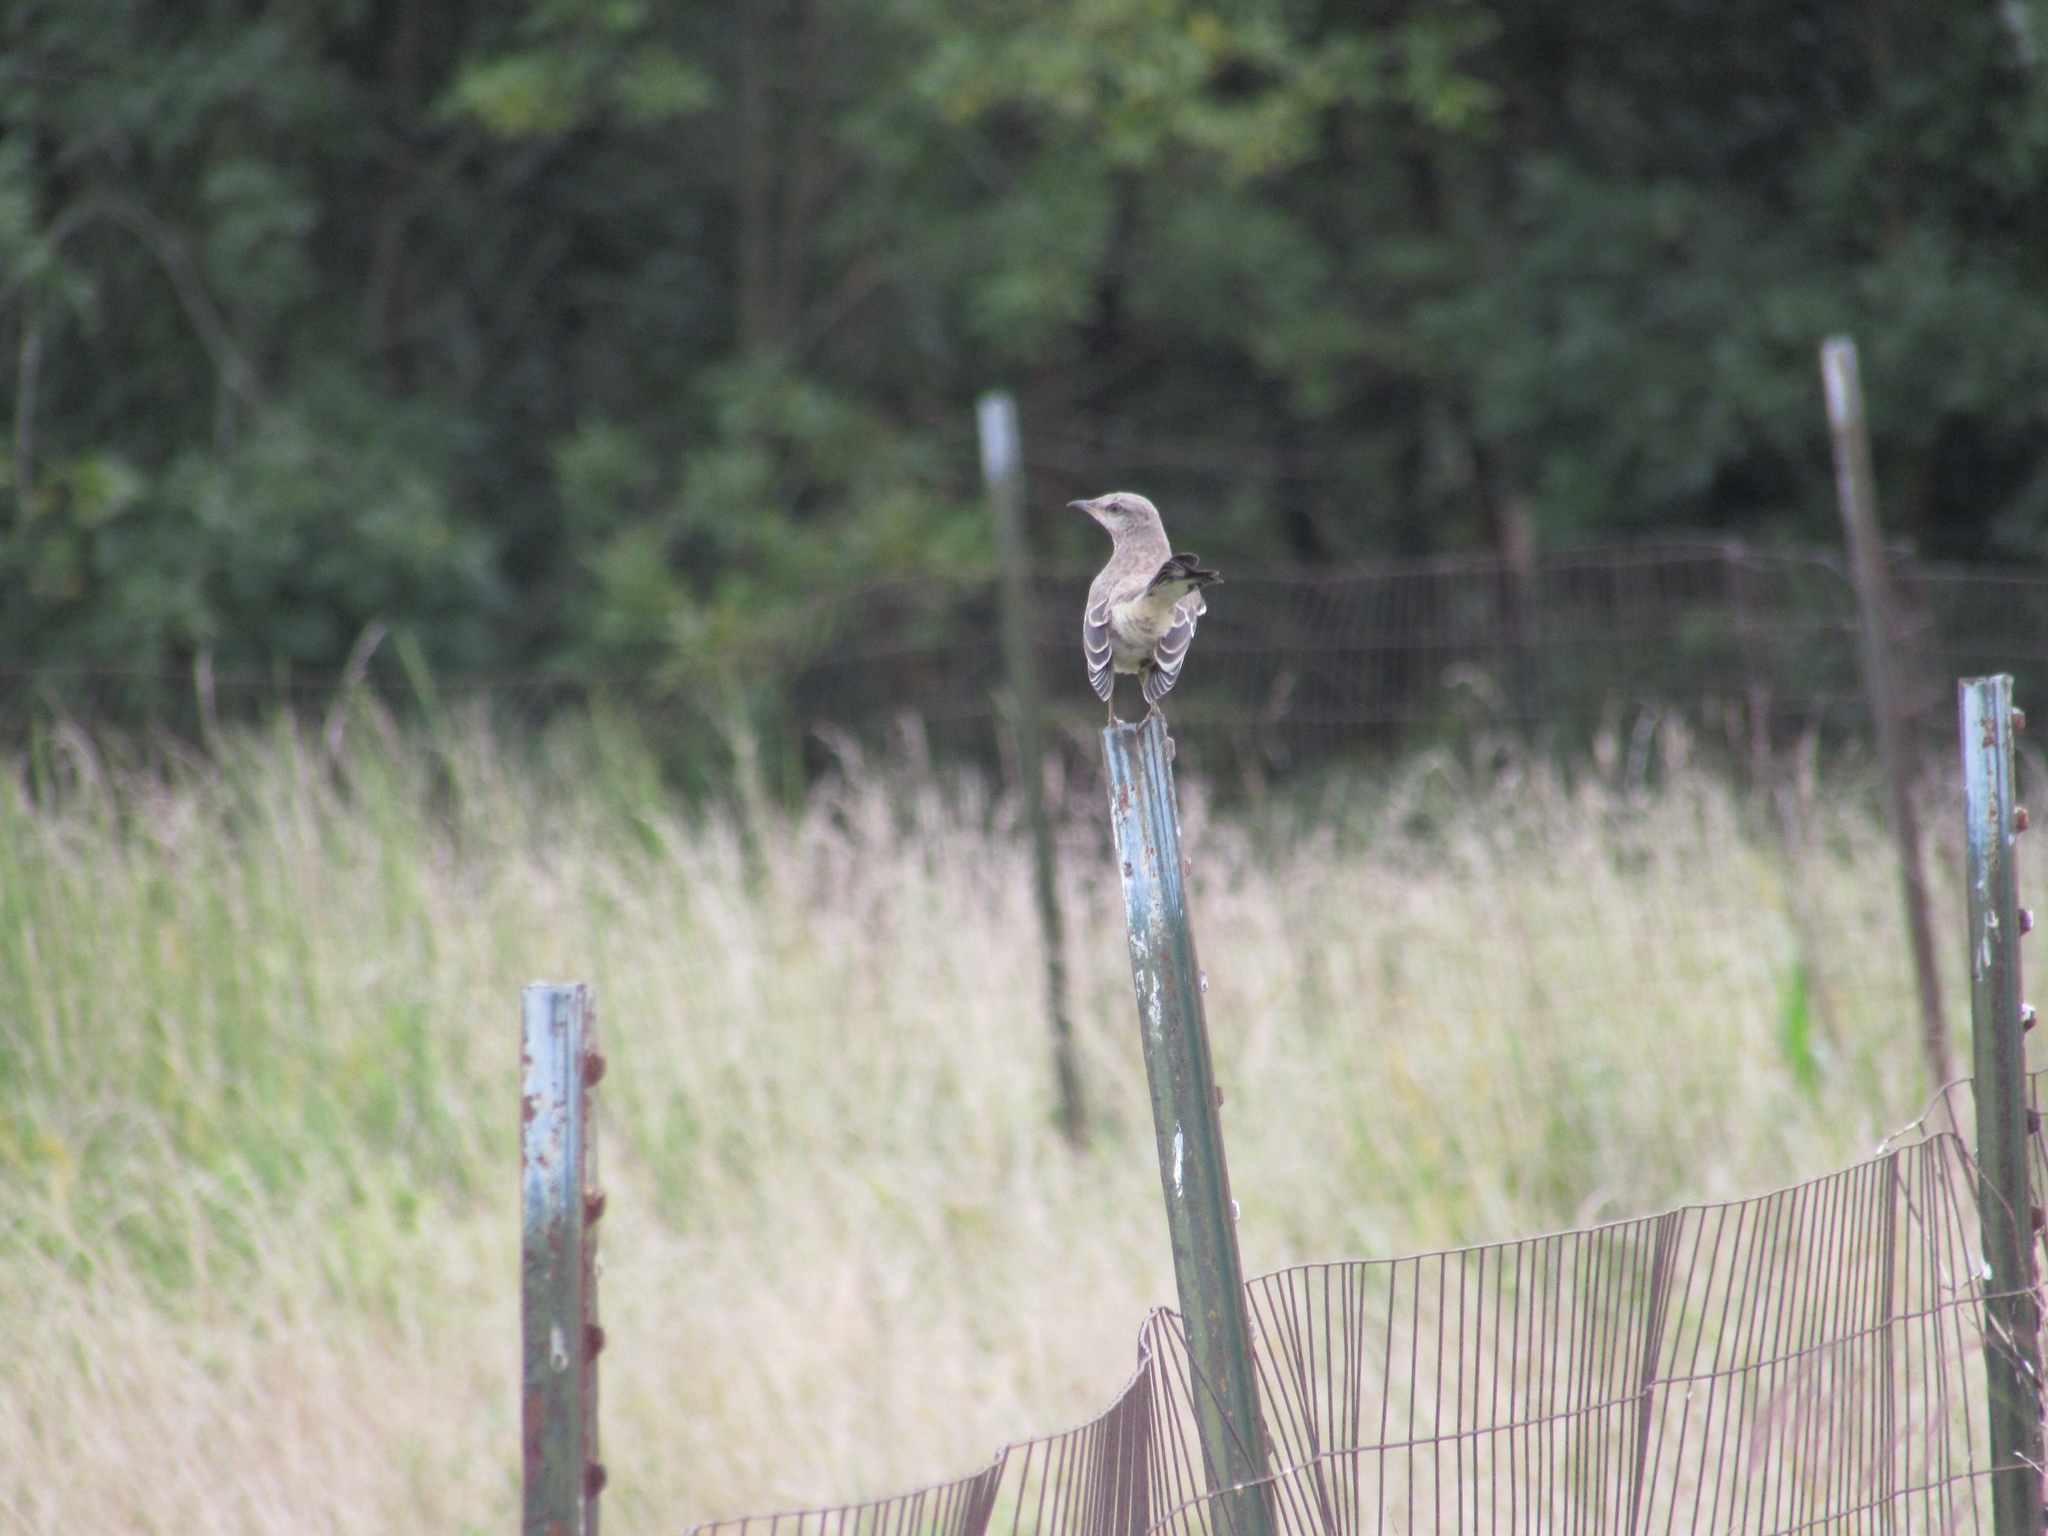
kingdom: Animalia
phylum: Chordata
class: Aves
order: Passeriformes
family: Mimidae
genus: Mimus
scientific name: Mimus polyglottos
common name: Northern mockingbird
